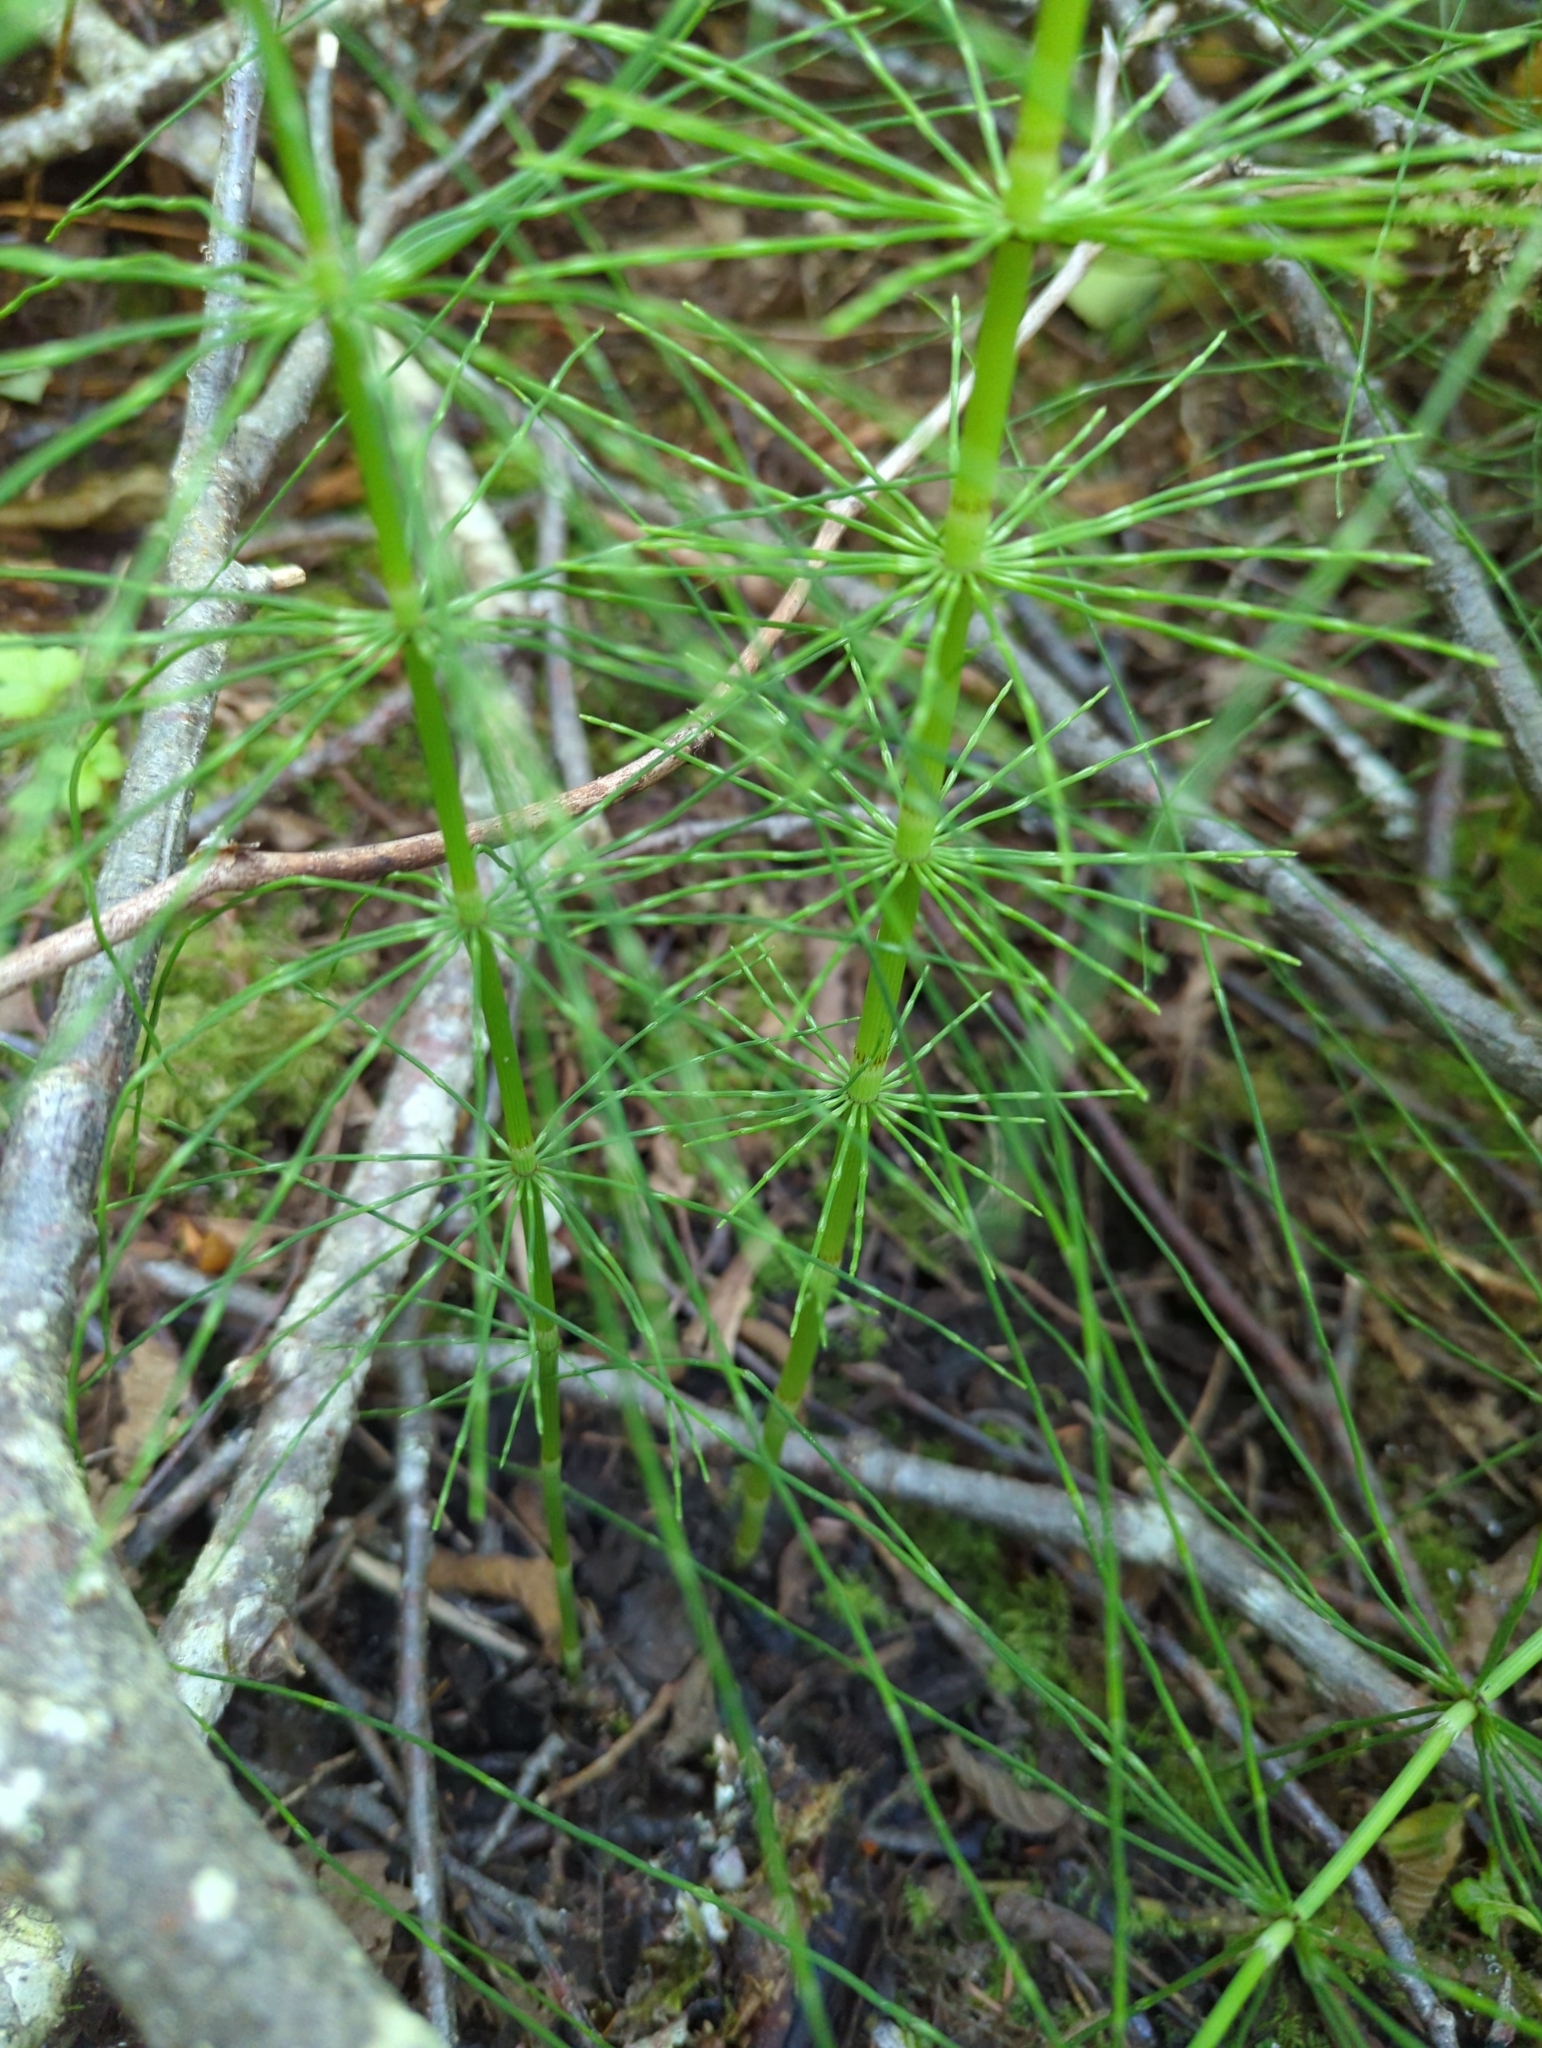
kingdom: Plantae
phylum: Tracheophyta
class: Polypodiopsida
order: Equisetales
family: Equisetaceae
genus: Equisetum
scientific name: Equisetum telmateia
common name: Great horsetail
